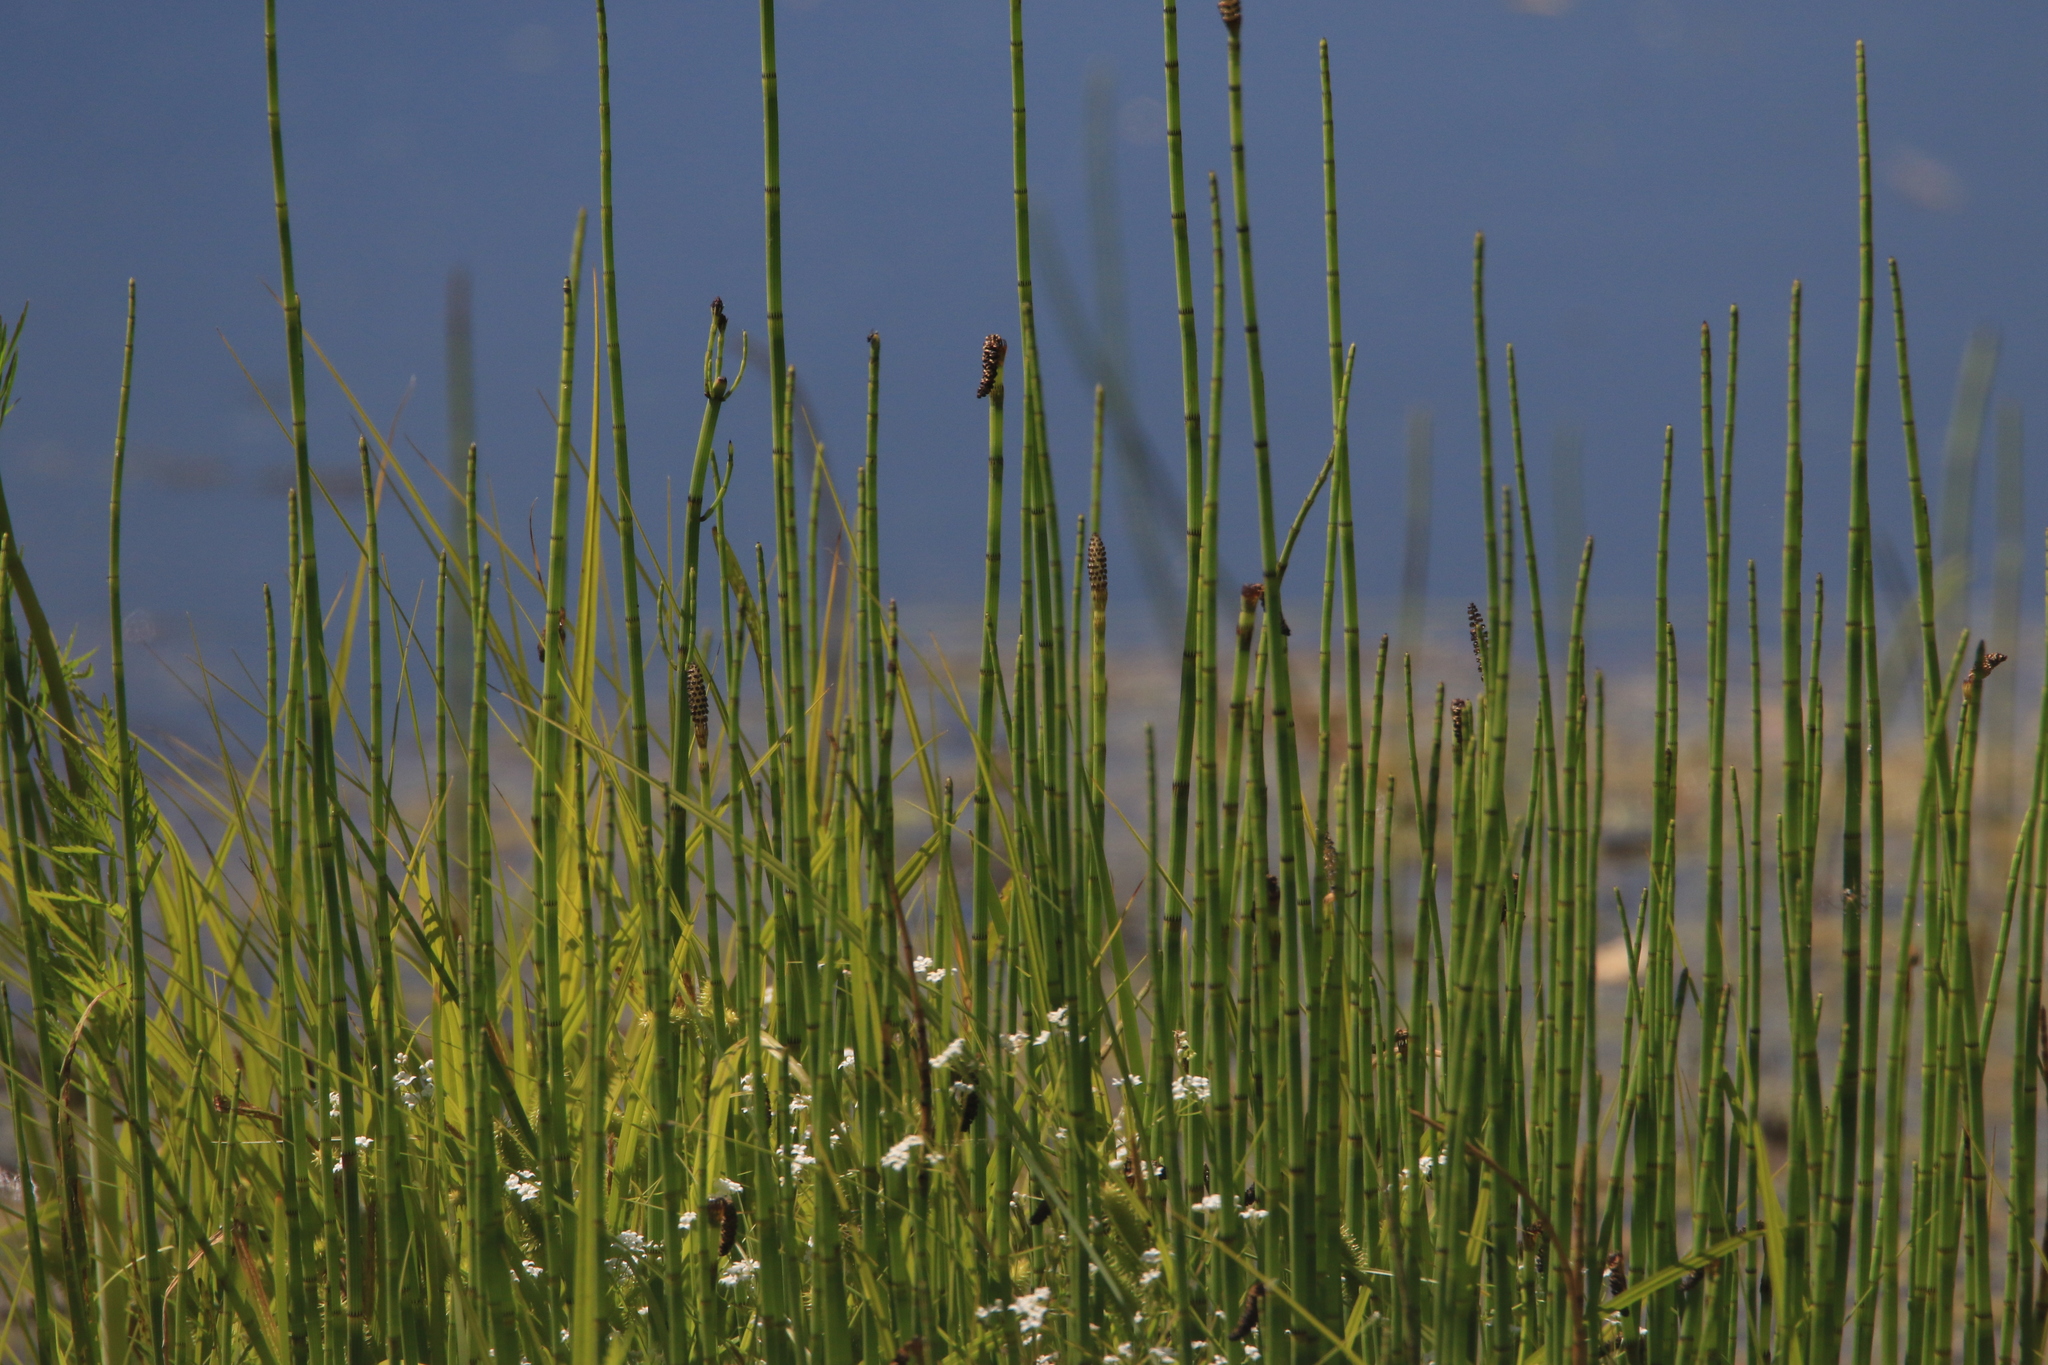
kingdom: Plantae
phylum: Tracheophyta
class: Polypodiopsida
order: Equisetales
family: Equisetaceae
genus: Equisetum
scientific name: Equisetum fluviatile
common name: Water horsetail
